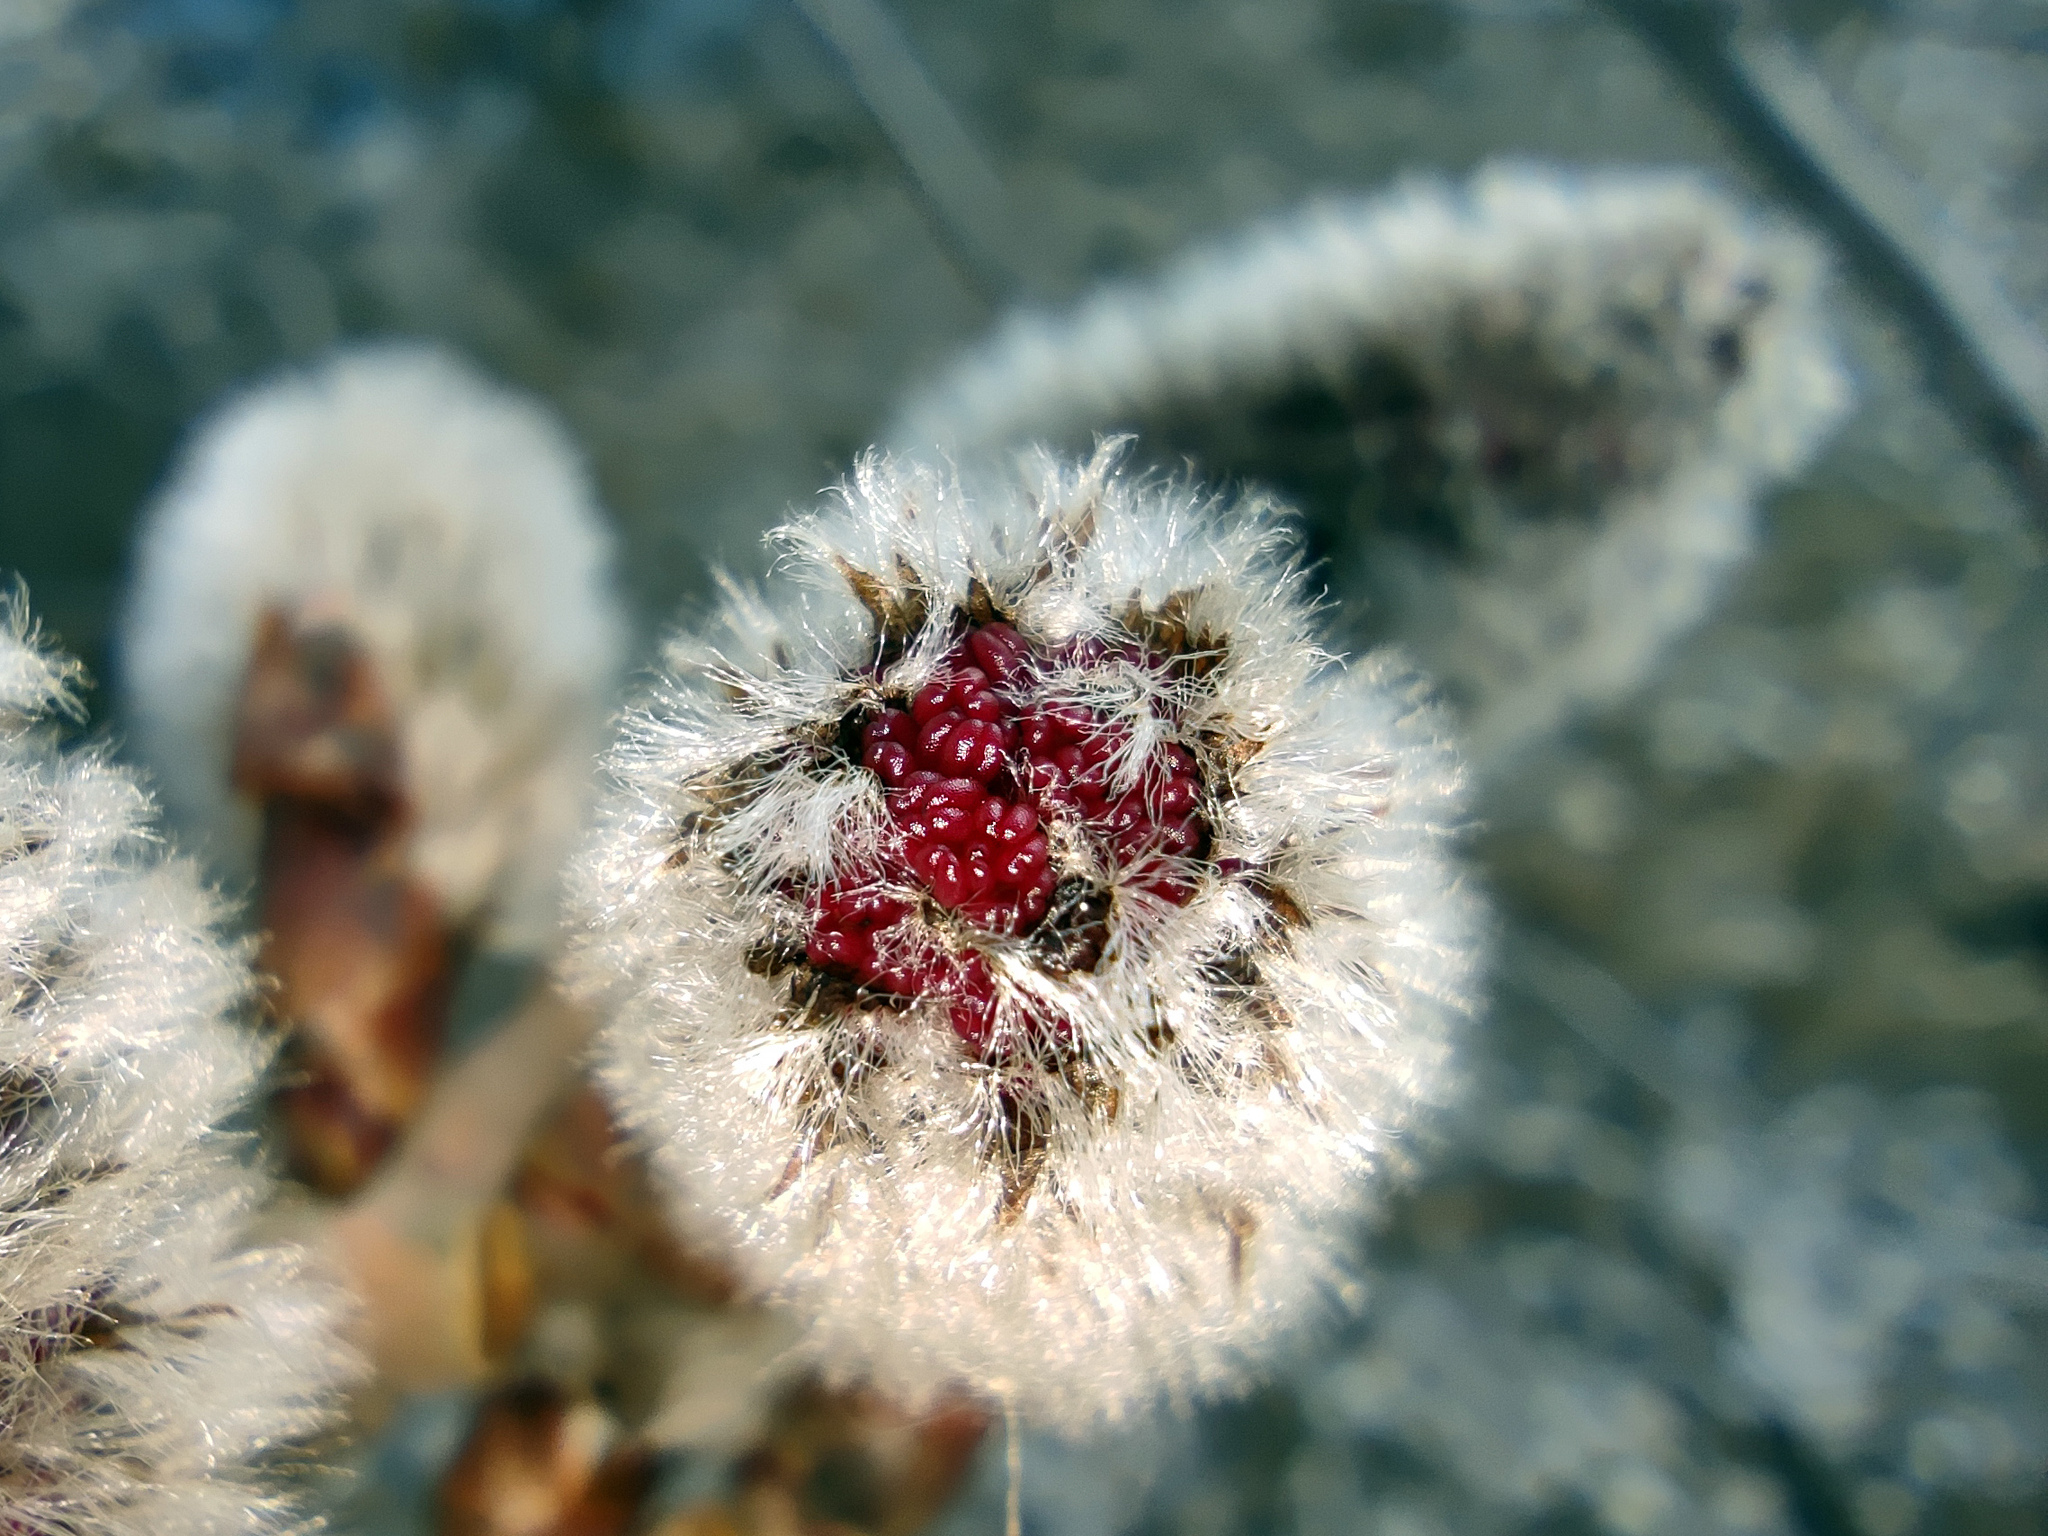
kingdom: Plantae
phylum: Tracheophyta
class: Magnoliopsida
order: Malpighiales
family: Salicaceae
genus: Populus
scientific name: Populus tremula
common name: European aspen
